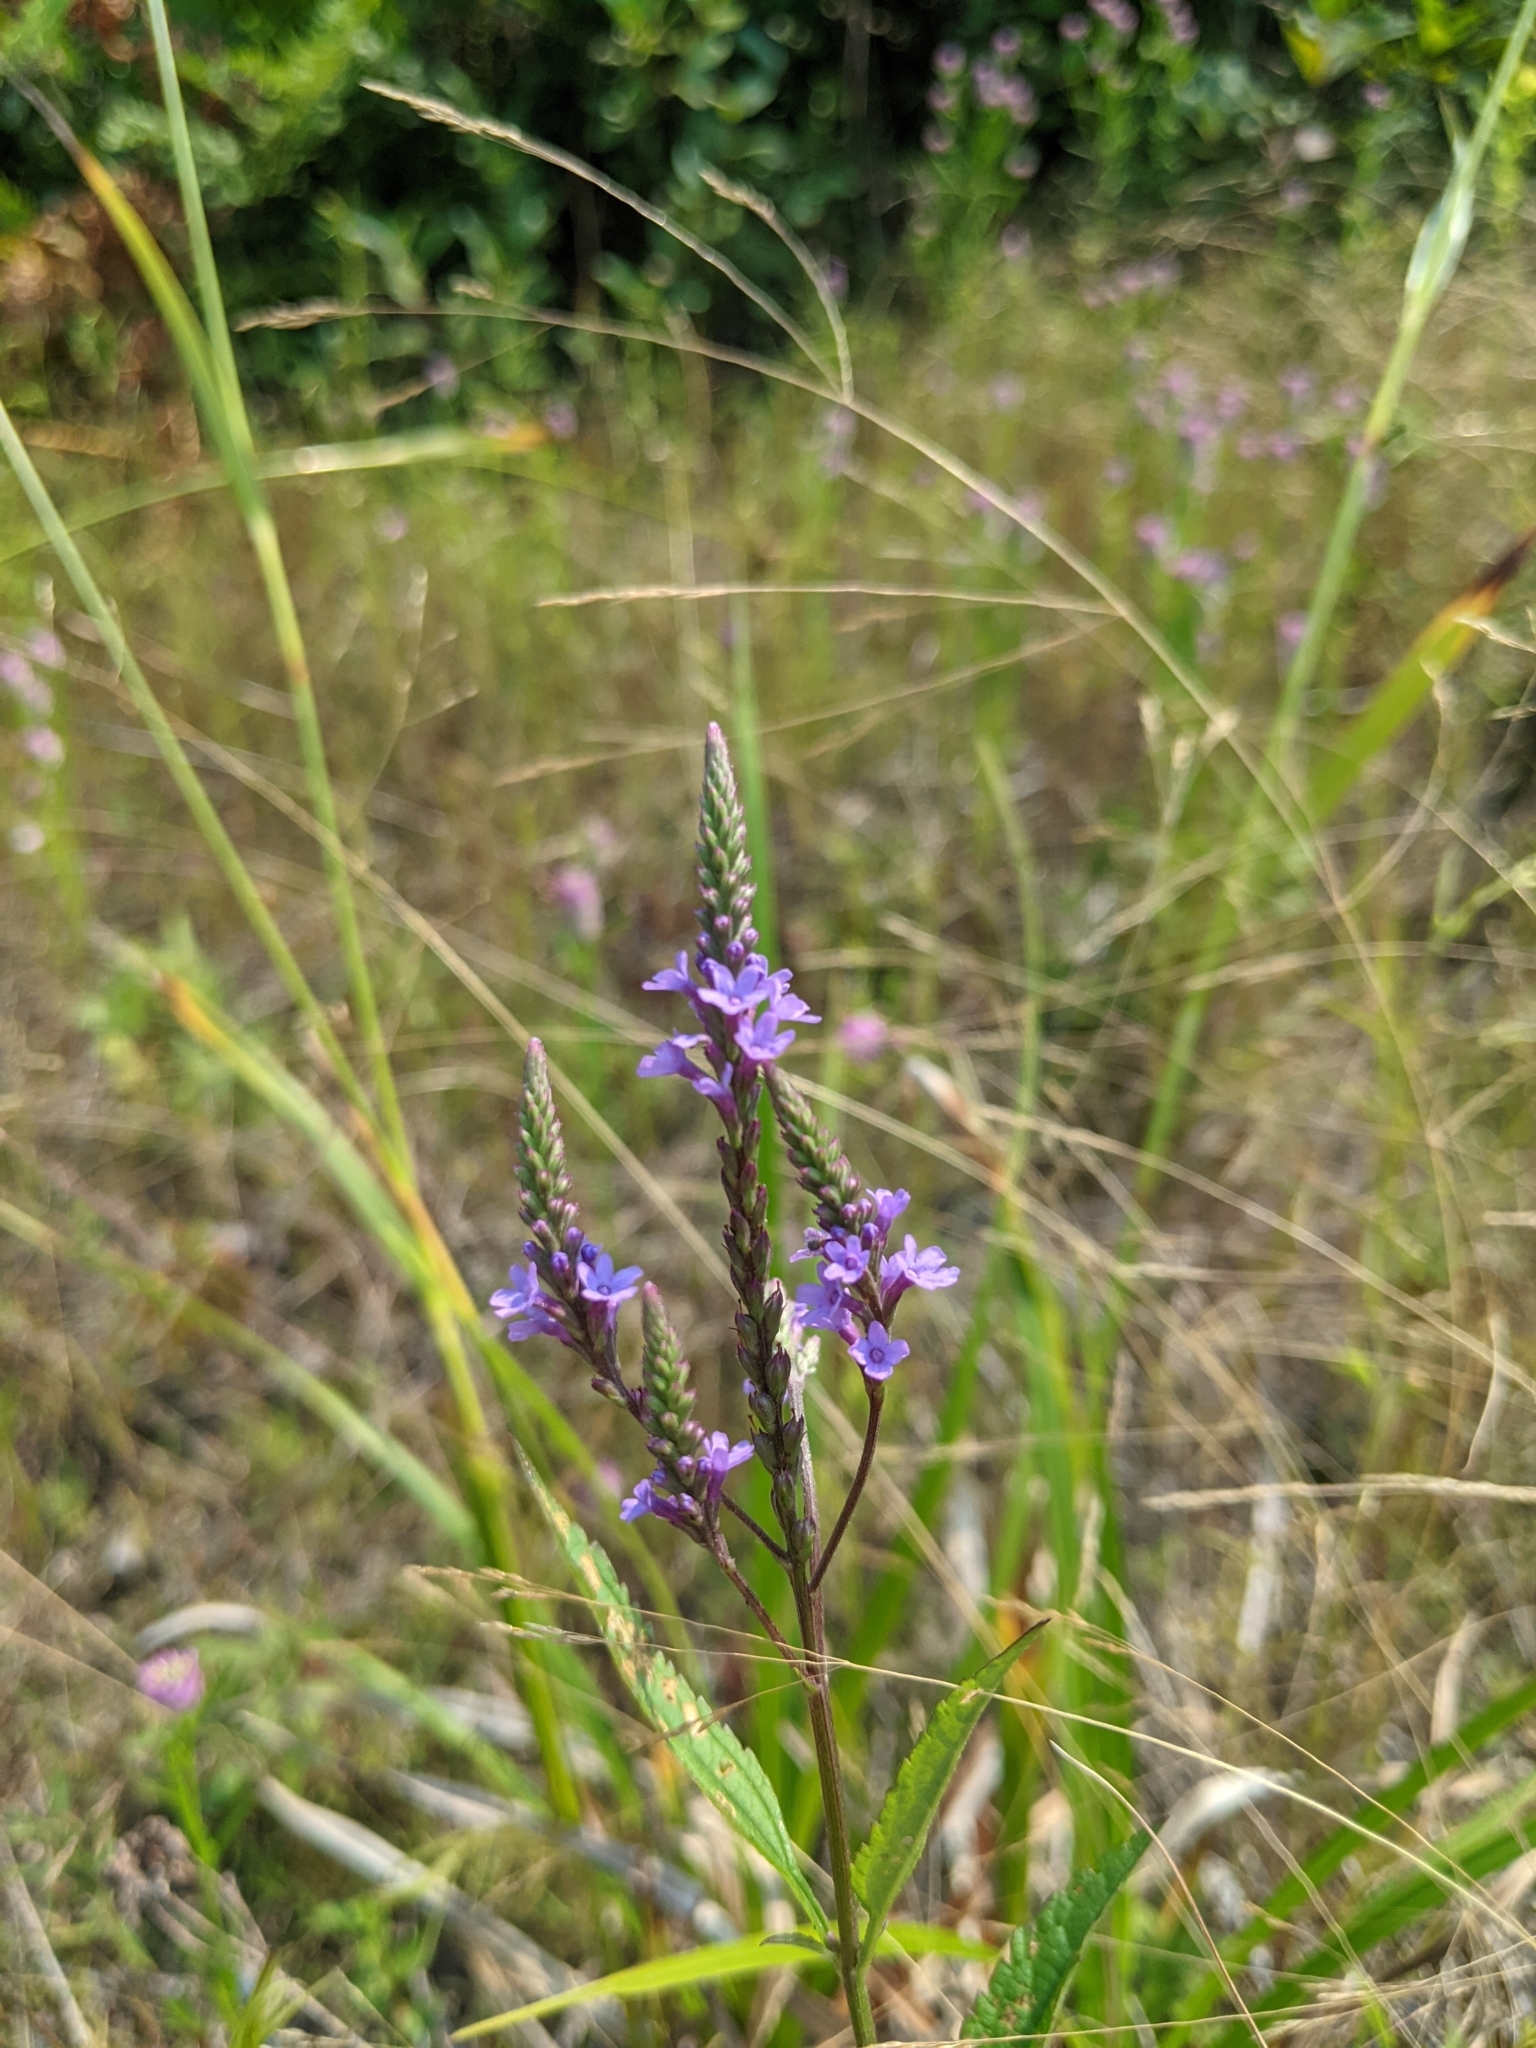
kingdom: Plantae
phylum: Tracheophyta
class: Magnoliopsida
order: Lamiales
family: Verbenaceae
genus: Verbena
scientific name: Verbena hastata
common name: American blue vervain
